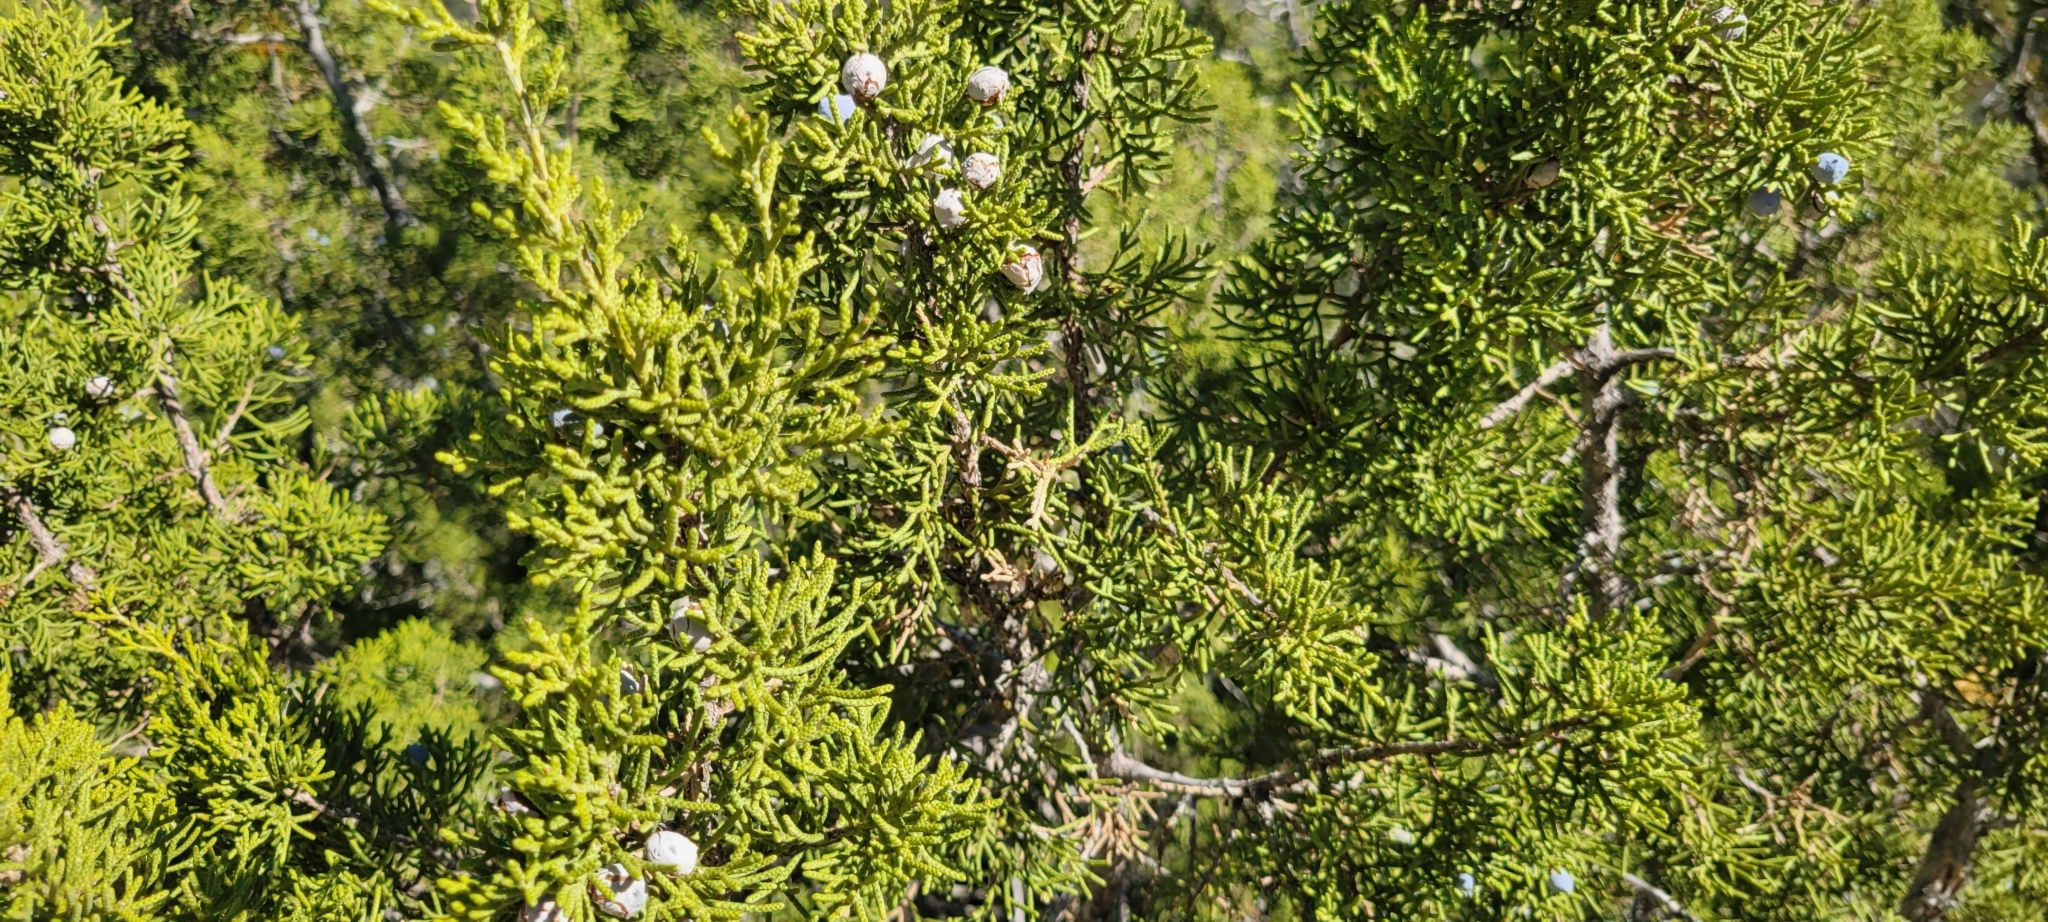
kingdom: Plantae
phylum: Tracheophyta
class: Pinopsida
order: Pinales
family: Cupressaceae
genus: Juniperus
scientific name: Juniperus californica
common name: California juniper
